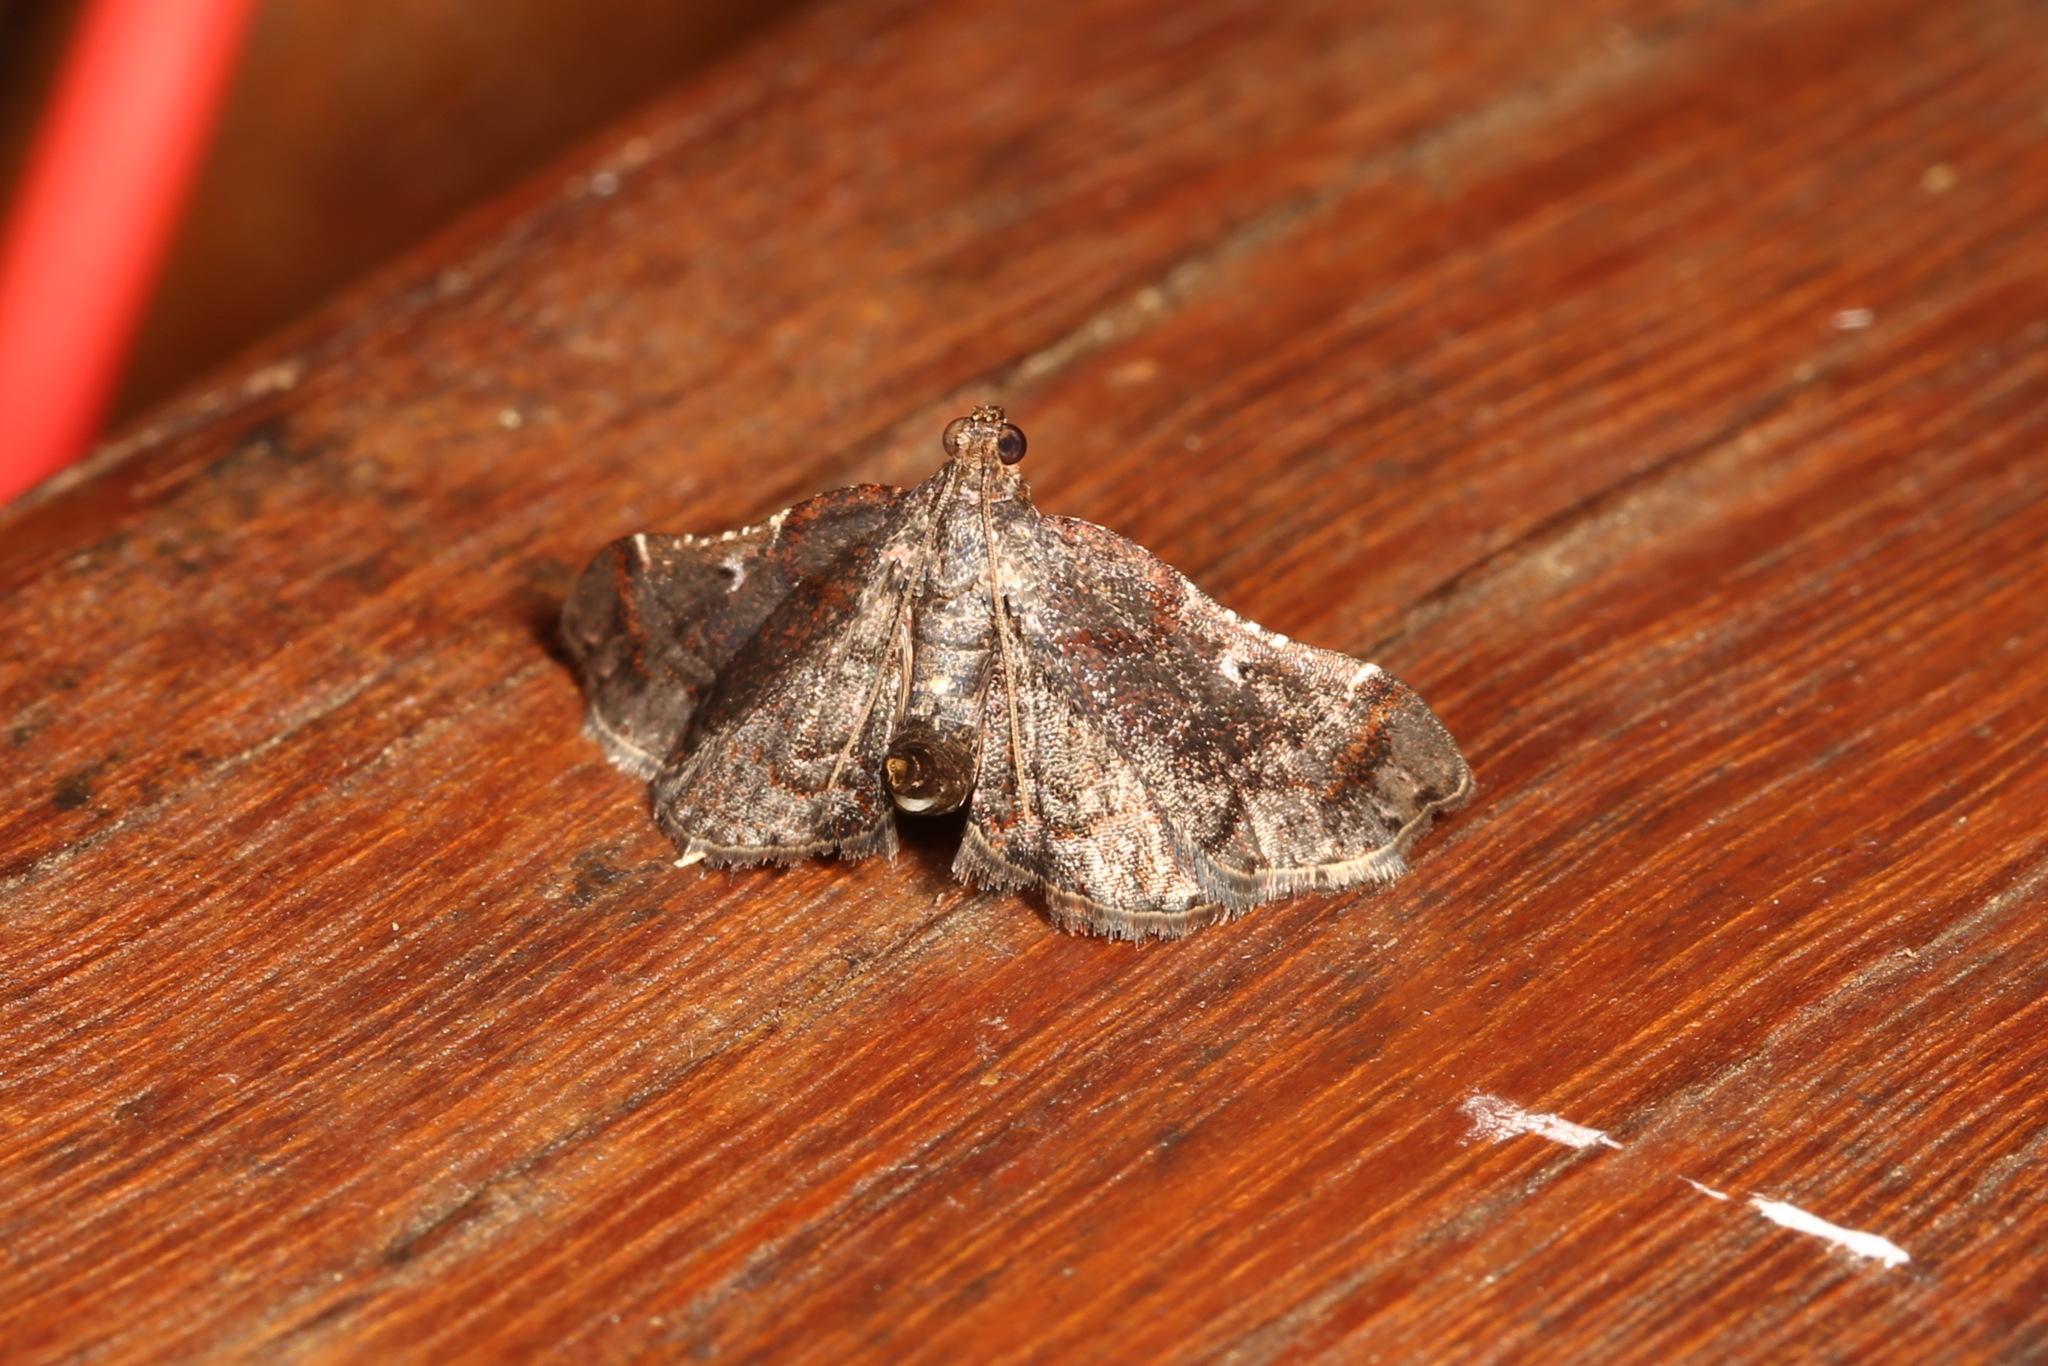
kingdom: Animalia
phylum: Arthropoda
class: Insecta
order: Lepidoptera
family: Pyralidae
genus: Scenedra
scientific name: Scenedra decoratalis
